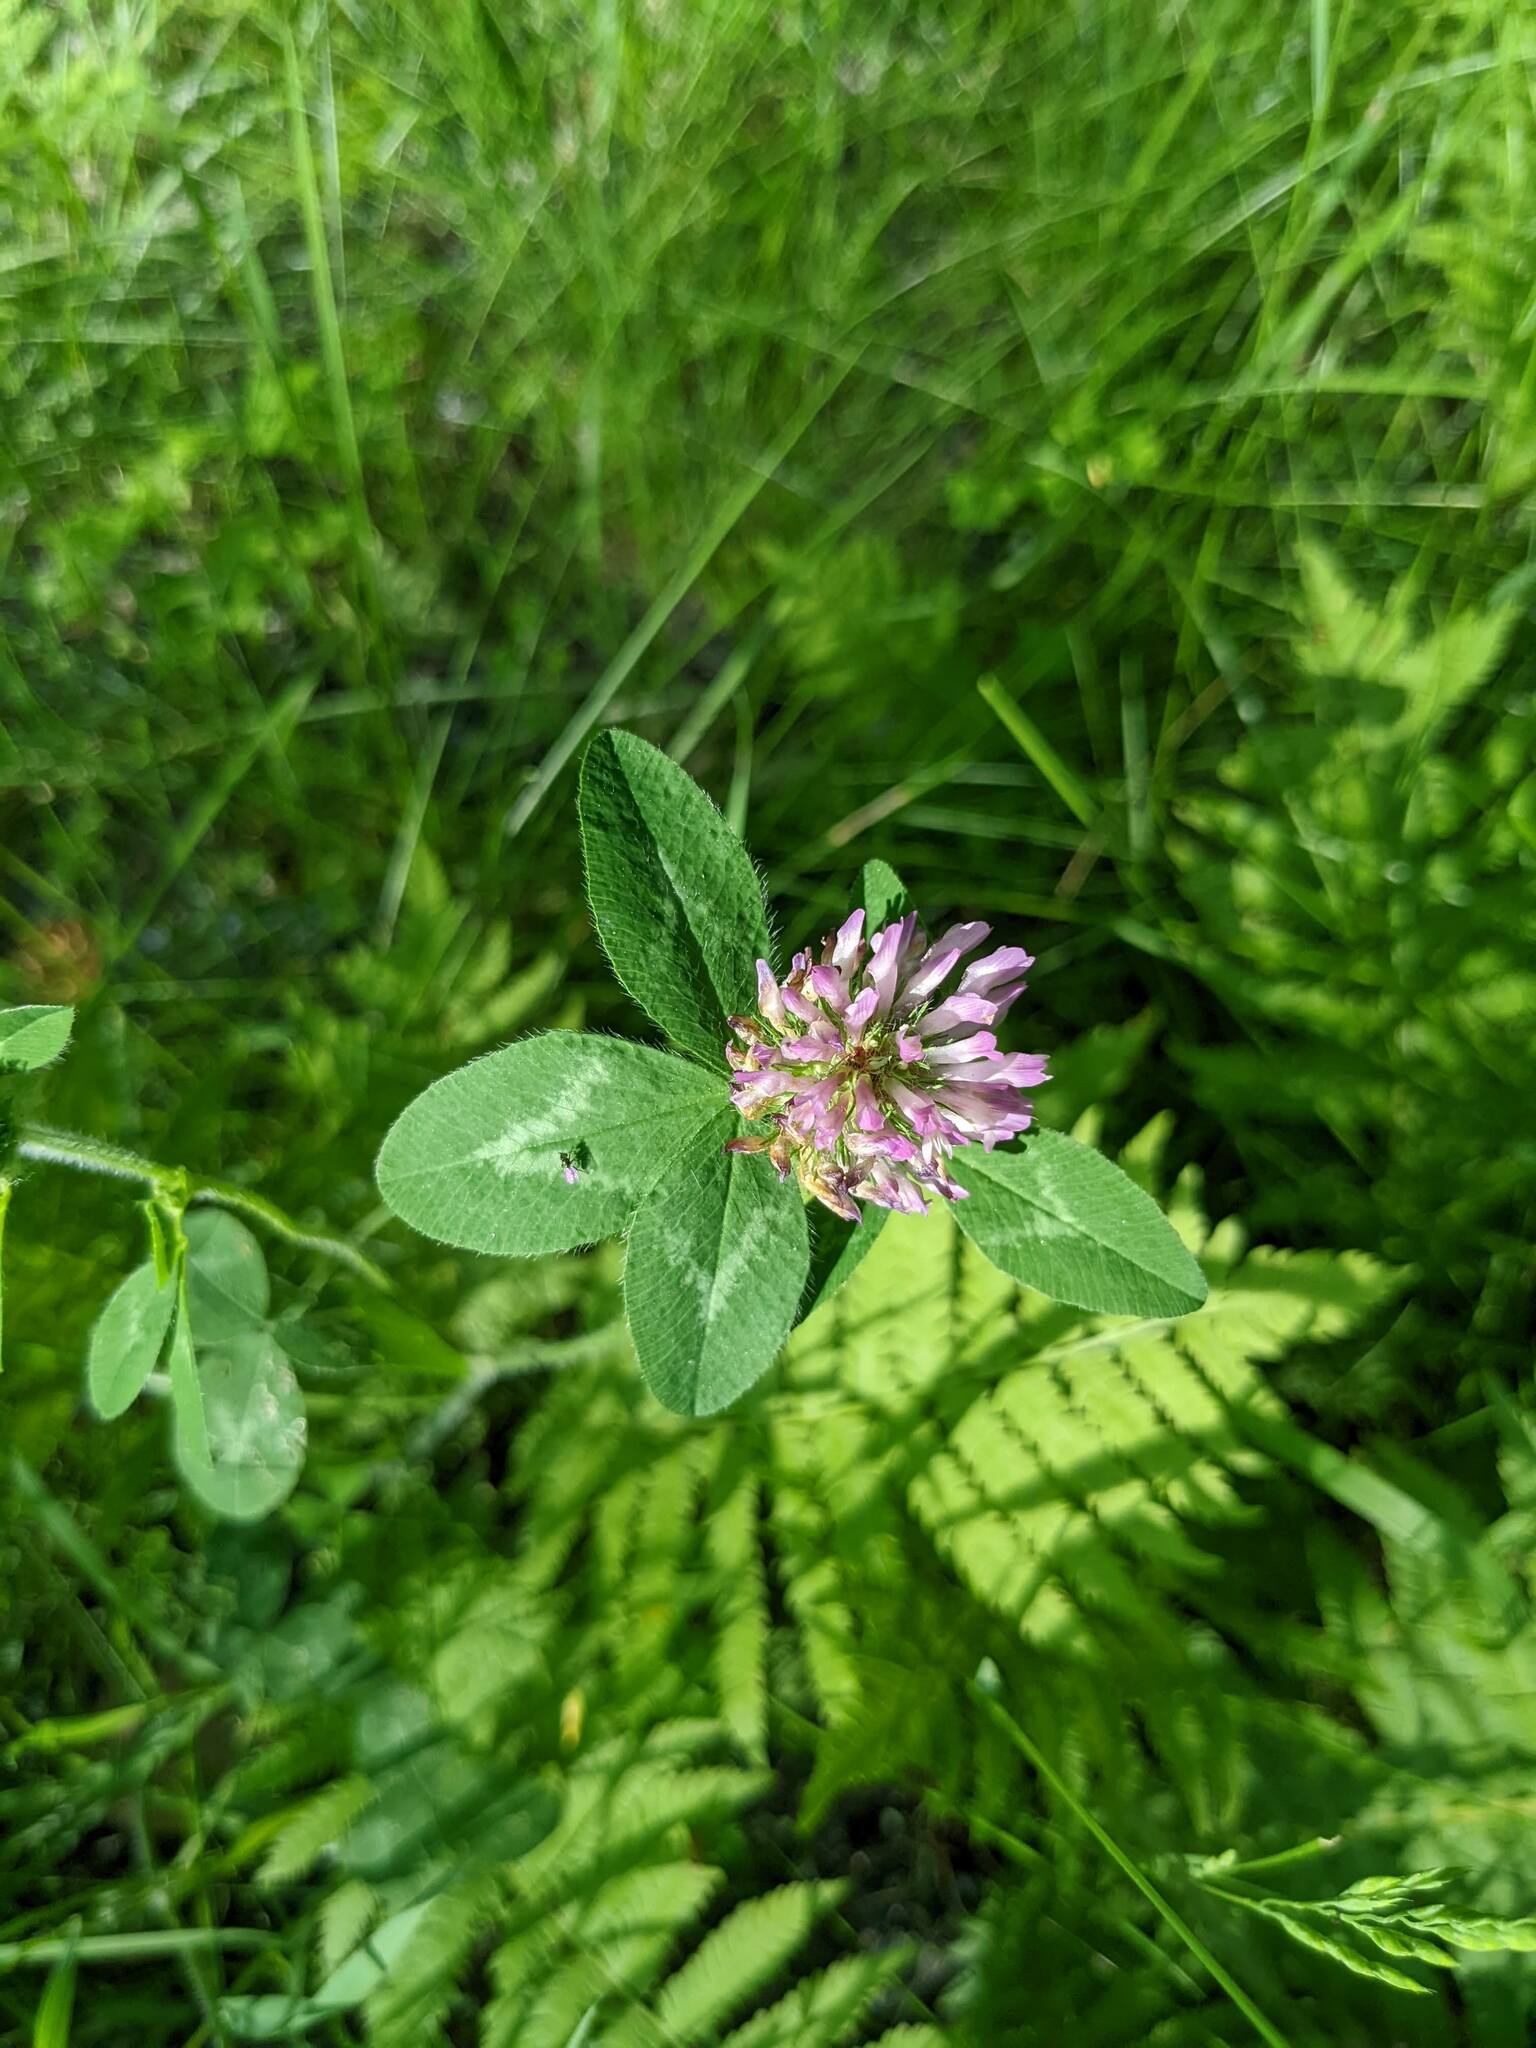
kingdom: Plantae
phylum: Tracheophyta
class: Magnoliopsida
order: Fabales
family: Fabaceae
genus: Trifolium
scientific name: Trifolium pratense
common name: Red clover
